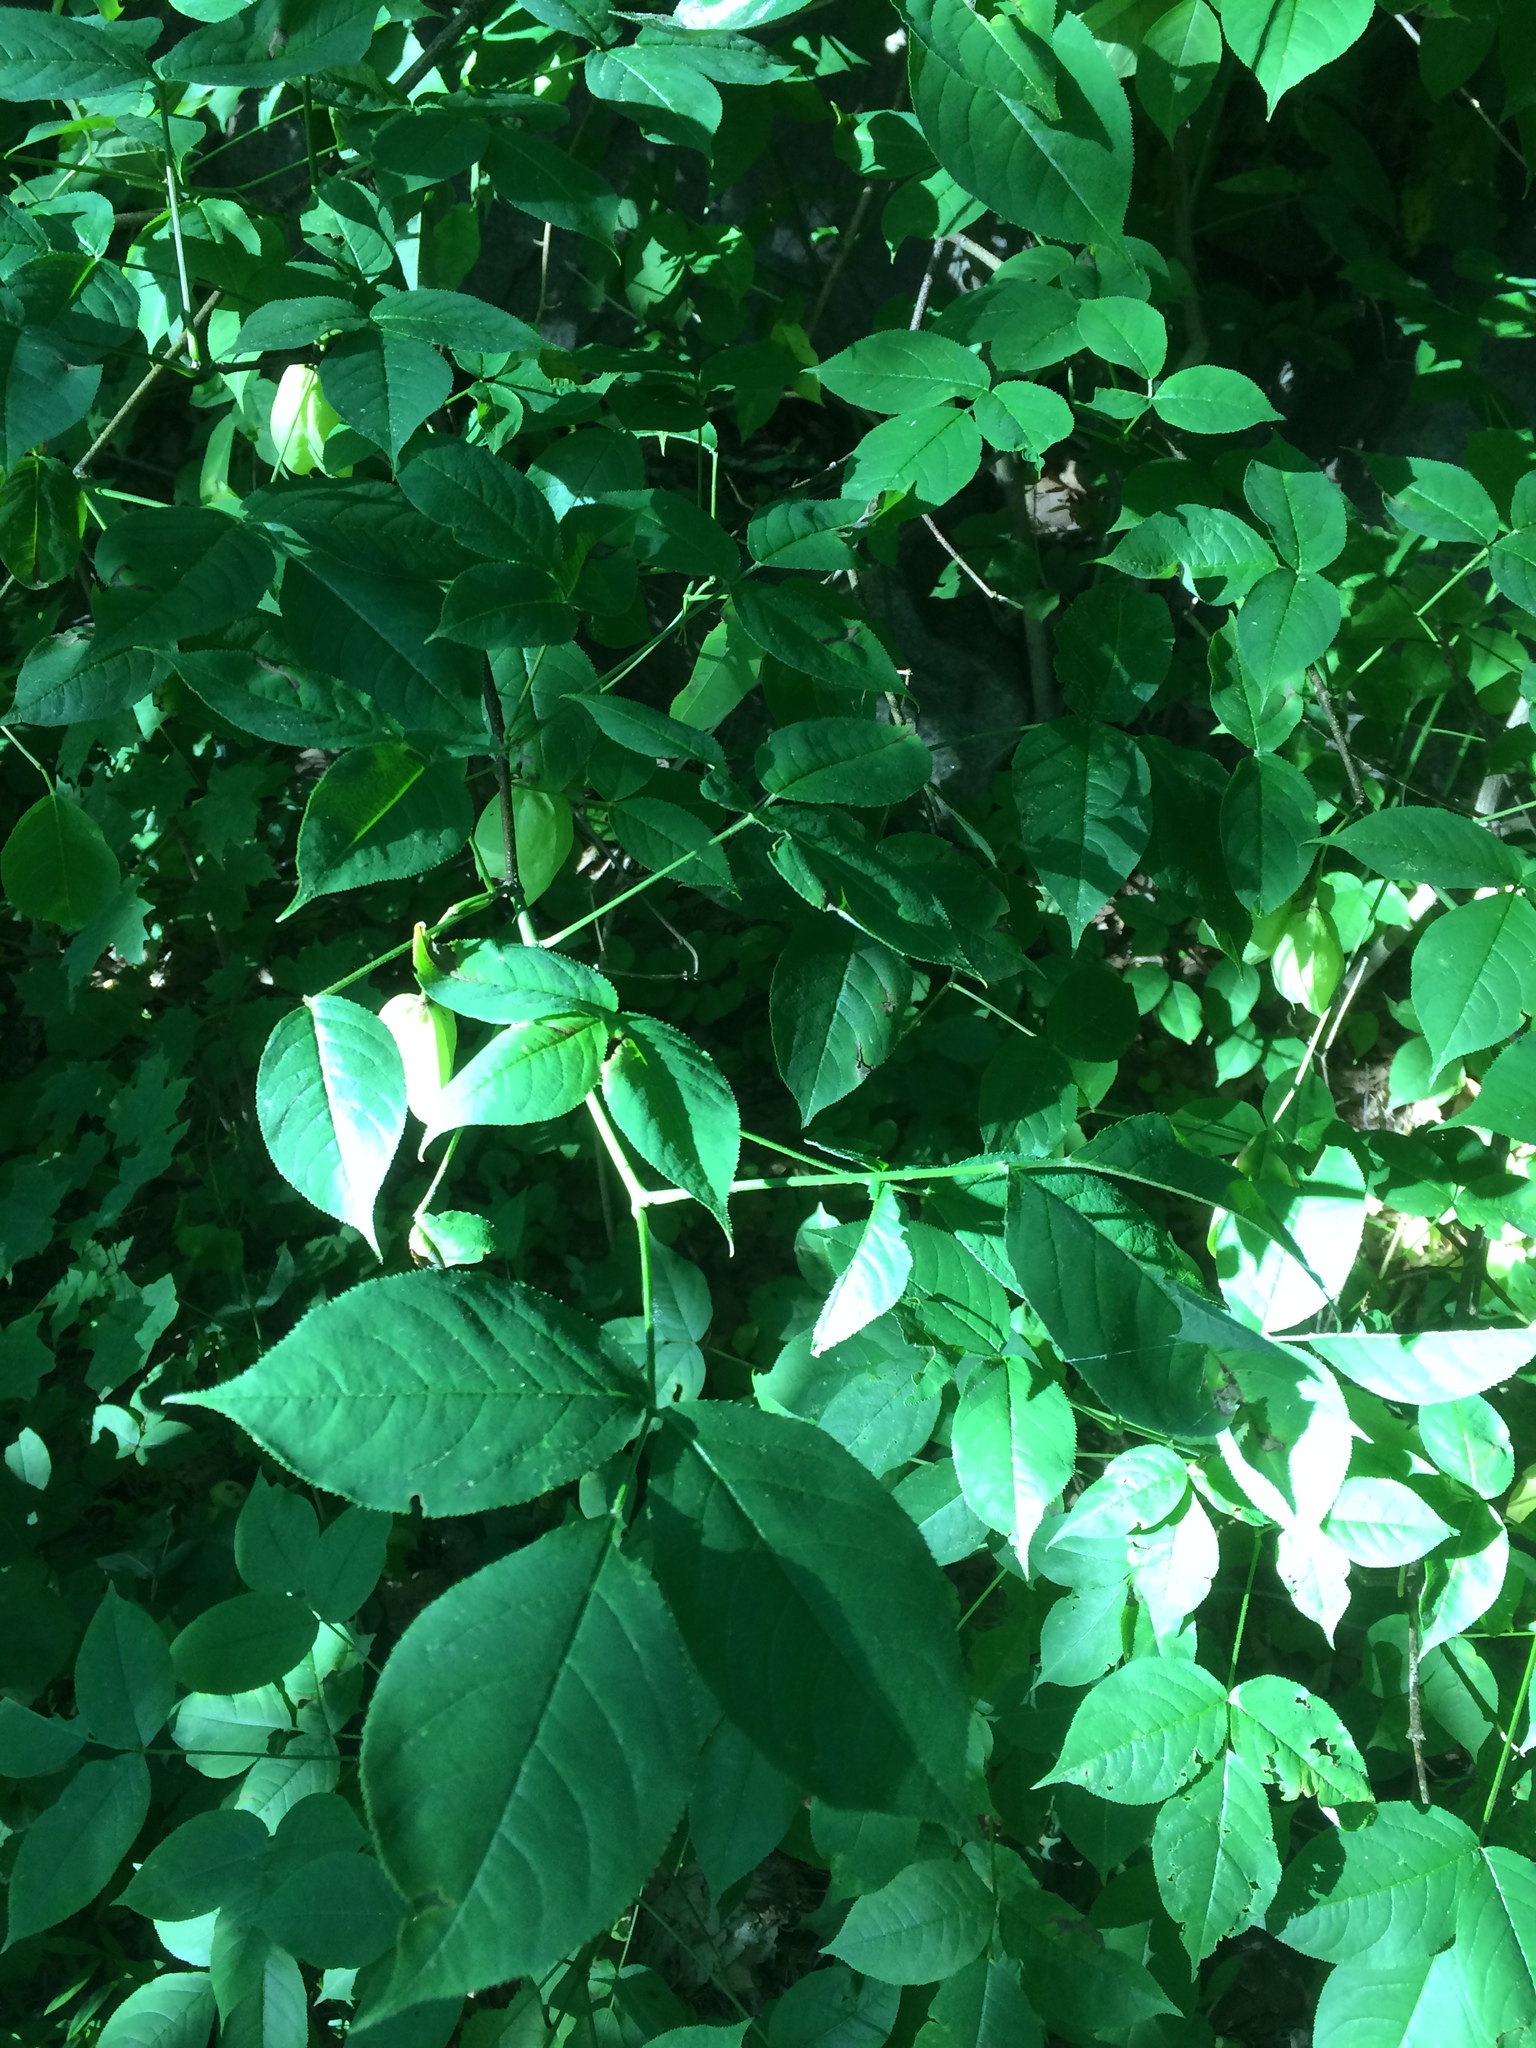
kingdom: Plantae
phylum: Tracheophyta
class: Magnoliopsida
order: Crossosomatales
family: Staphyleaceae
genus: Staphylea
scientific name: Staphylea trifolia
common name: American bladdernut
